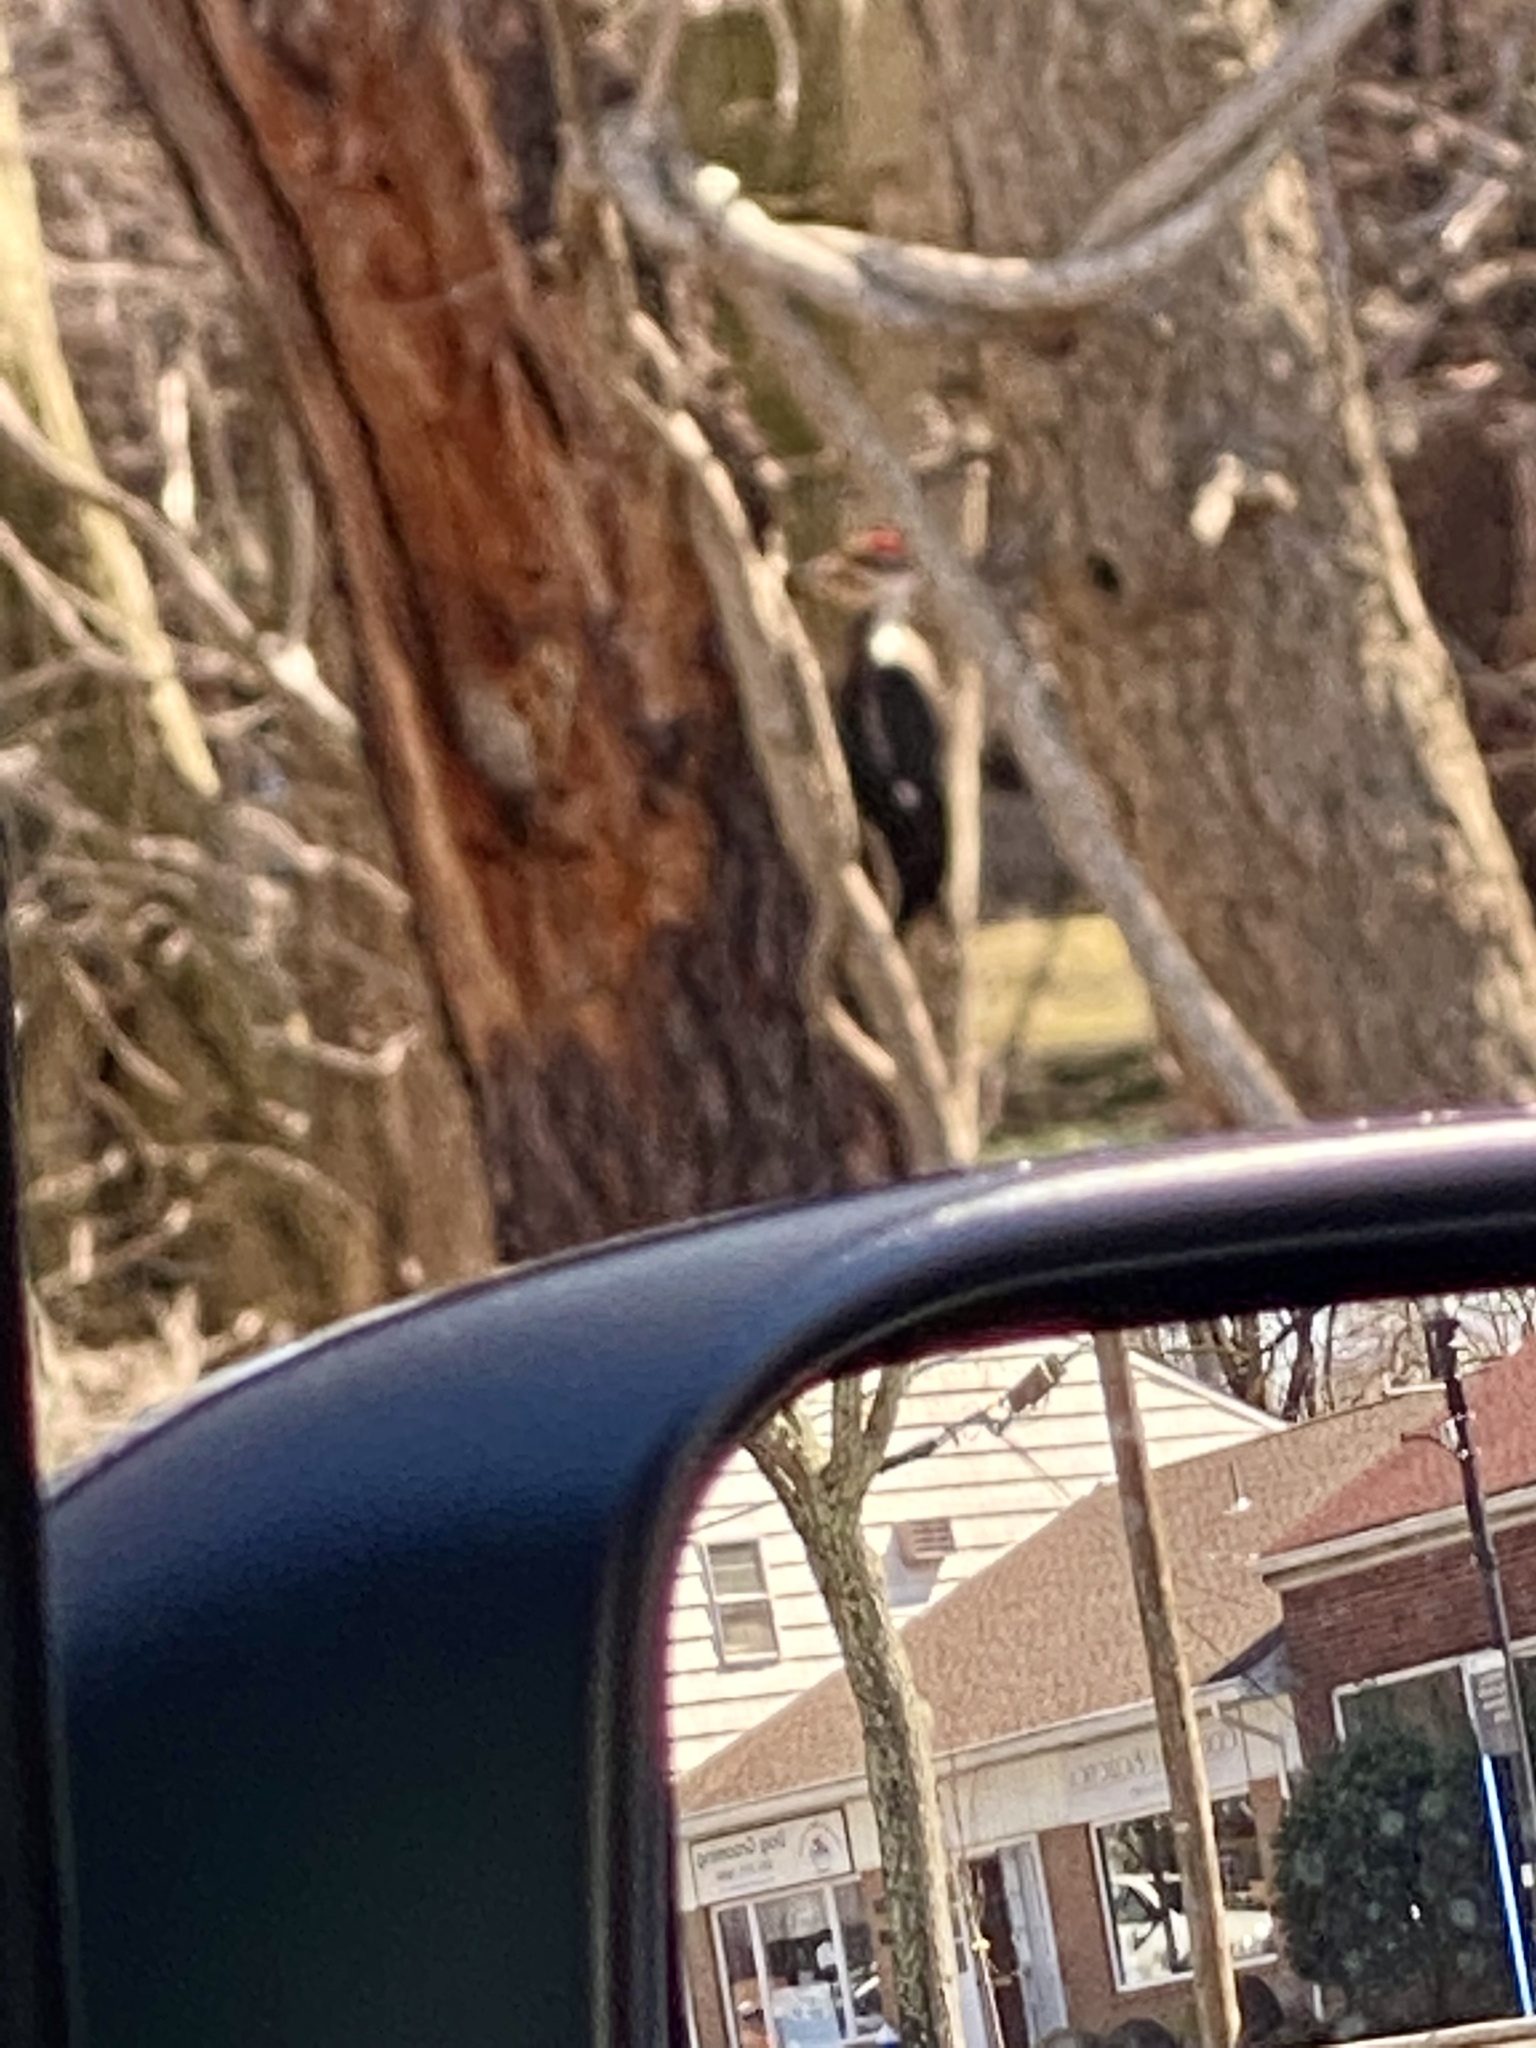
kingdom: Animalia
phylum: Chordata
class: Aves
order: Piciformes
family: Picidae
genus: Dryocopus
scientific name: Dryocopus pileatus
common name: Pileated woodpecker
